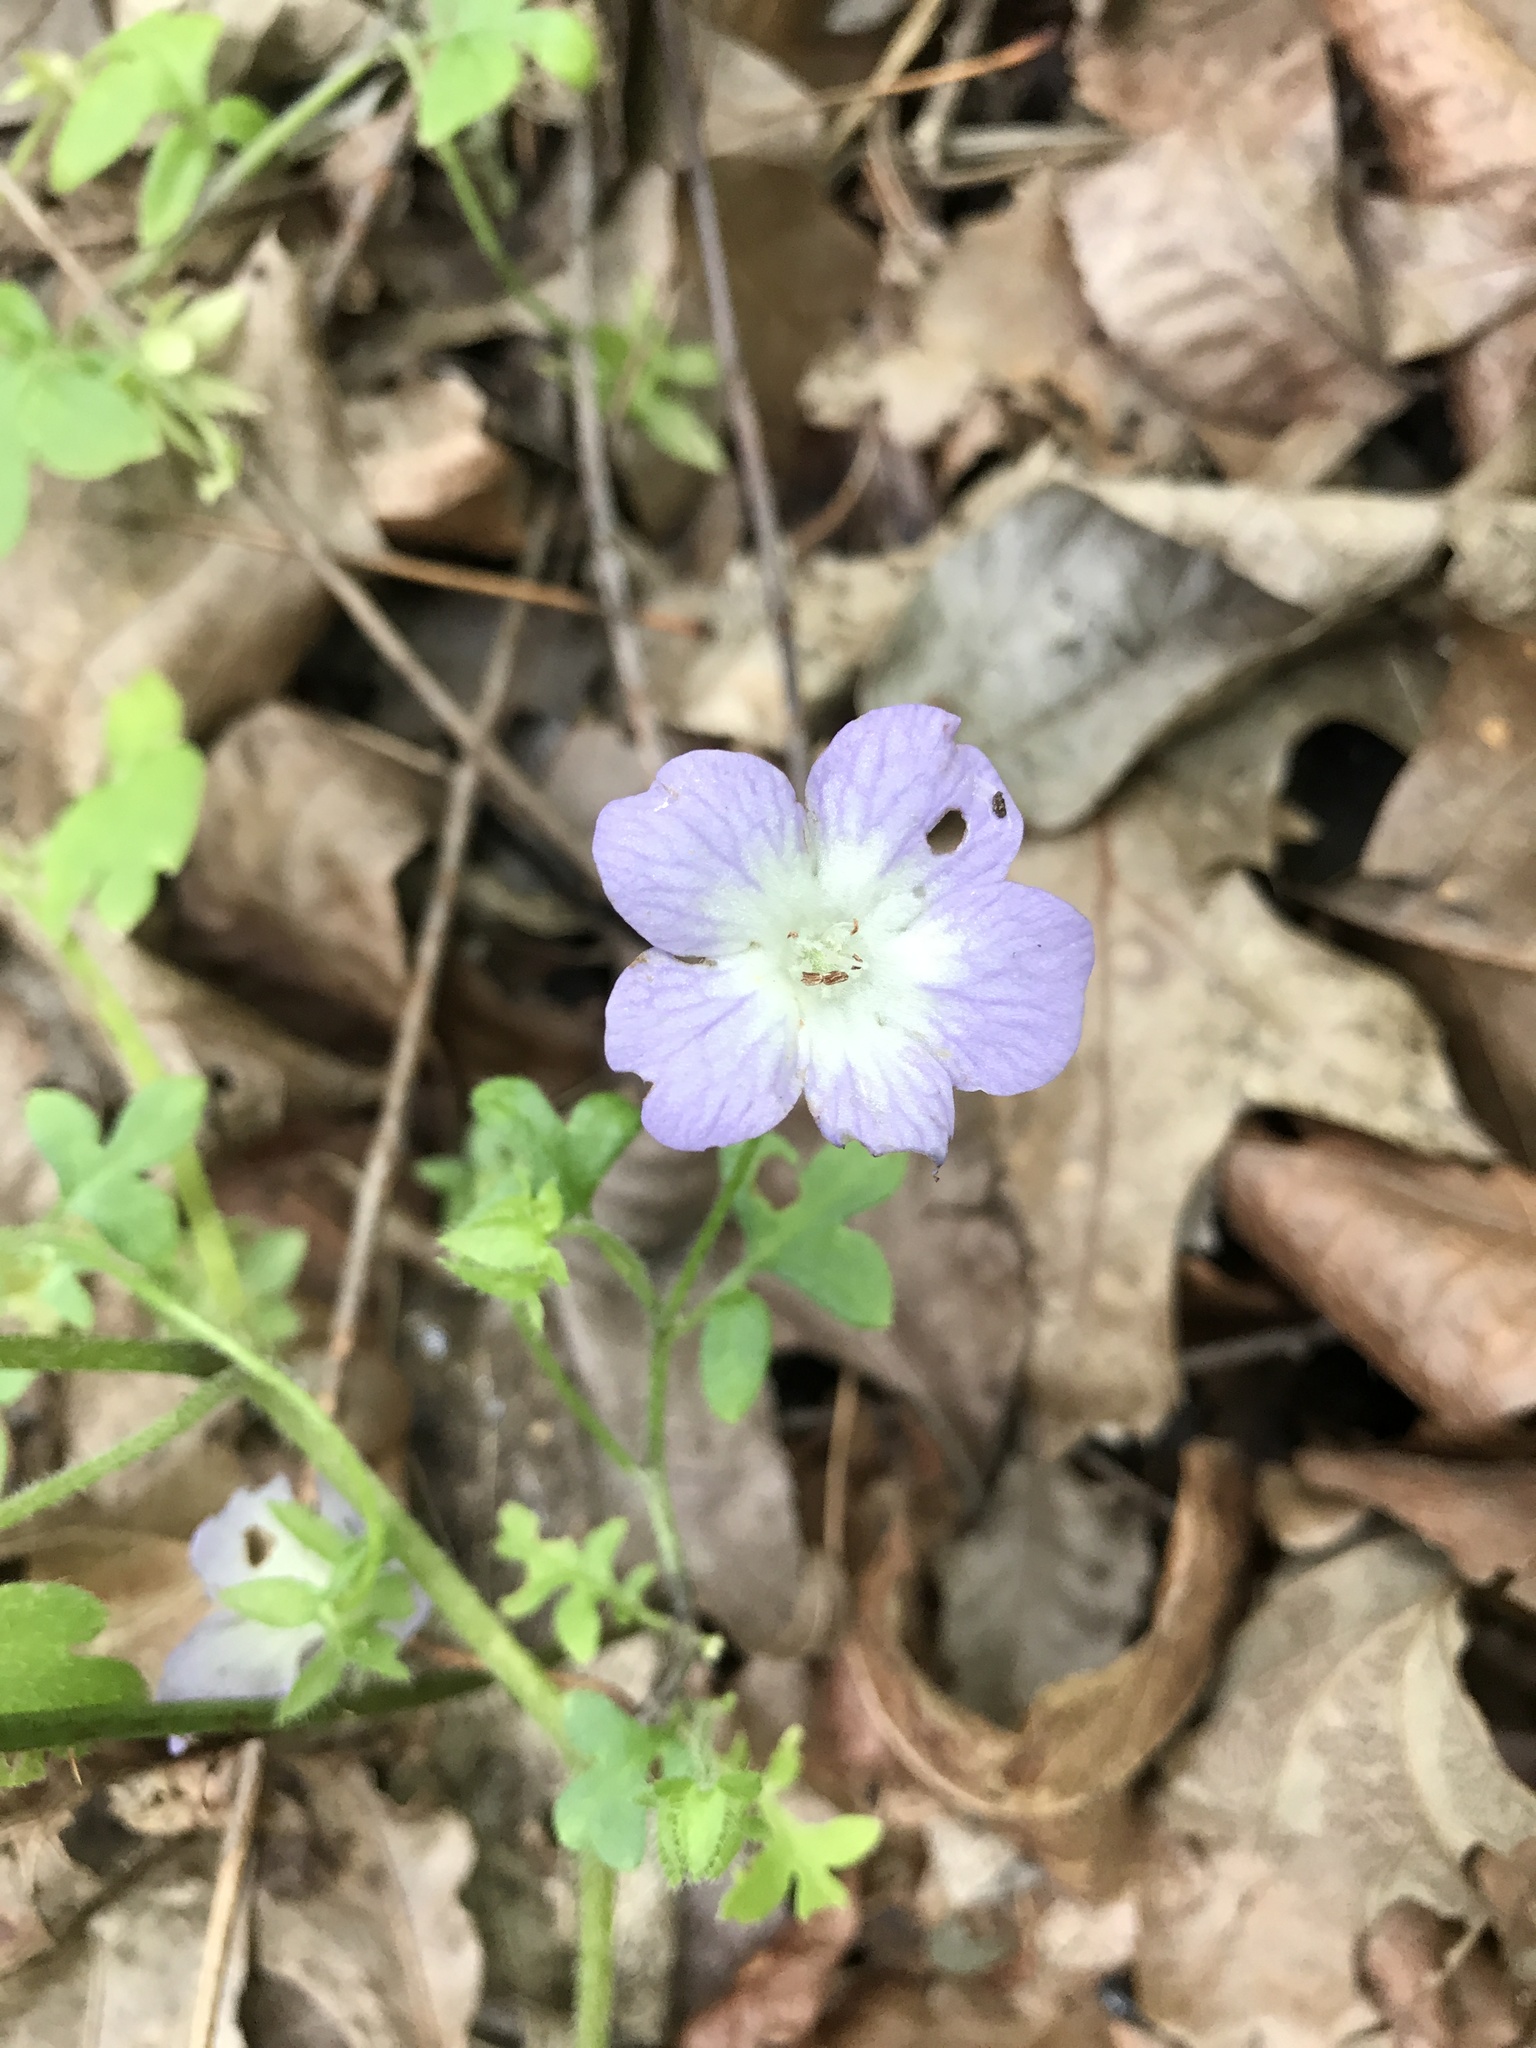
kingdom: Plantae
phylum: Tracheophyta
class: Magnoliopsida
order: Boraginales
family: Hydrophyllaceae
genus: Nemophila
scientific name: Nemophila phacelioides
